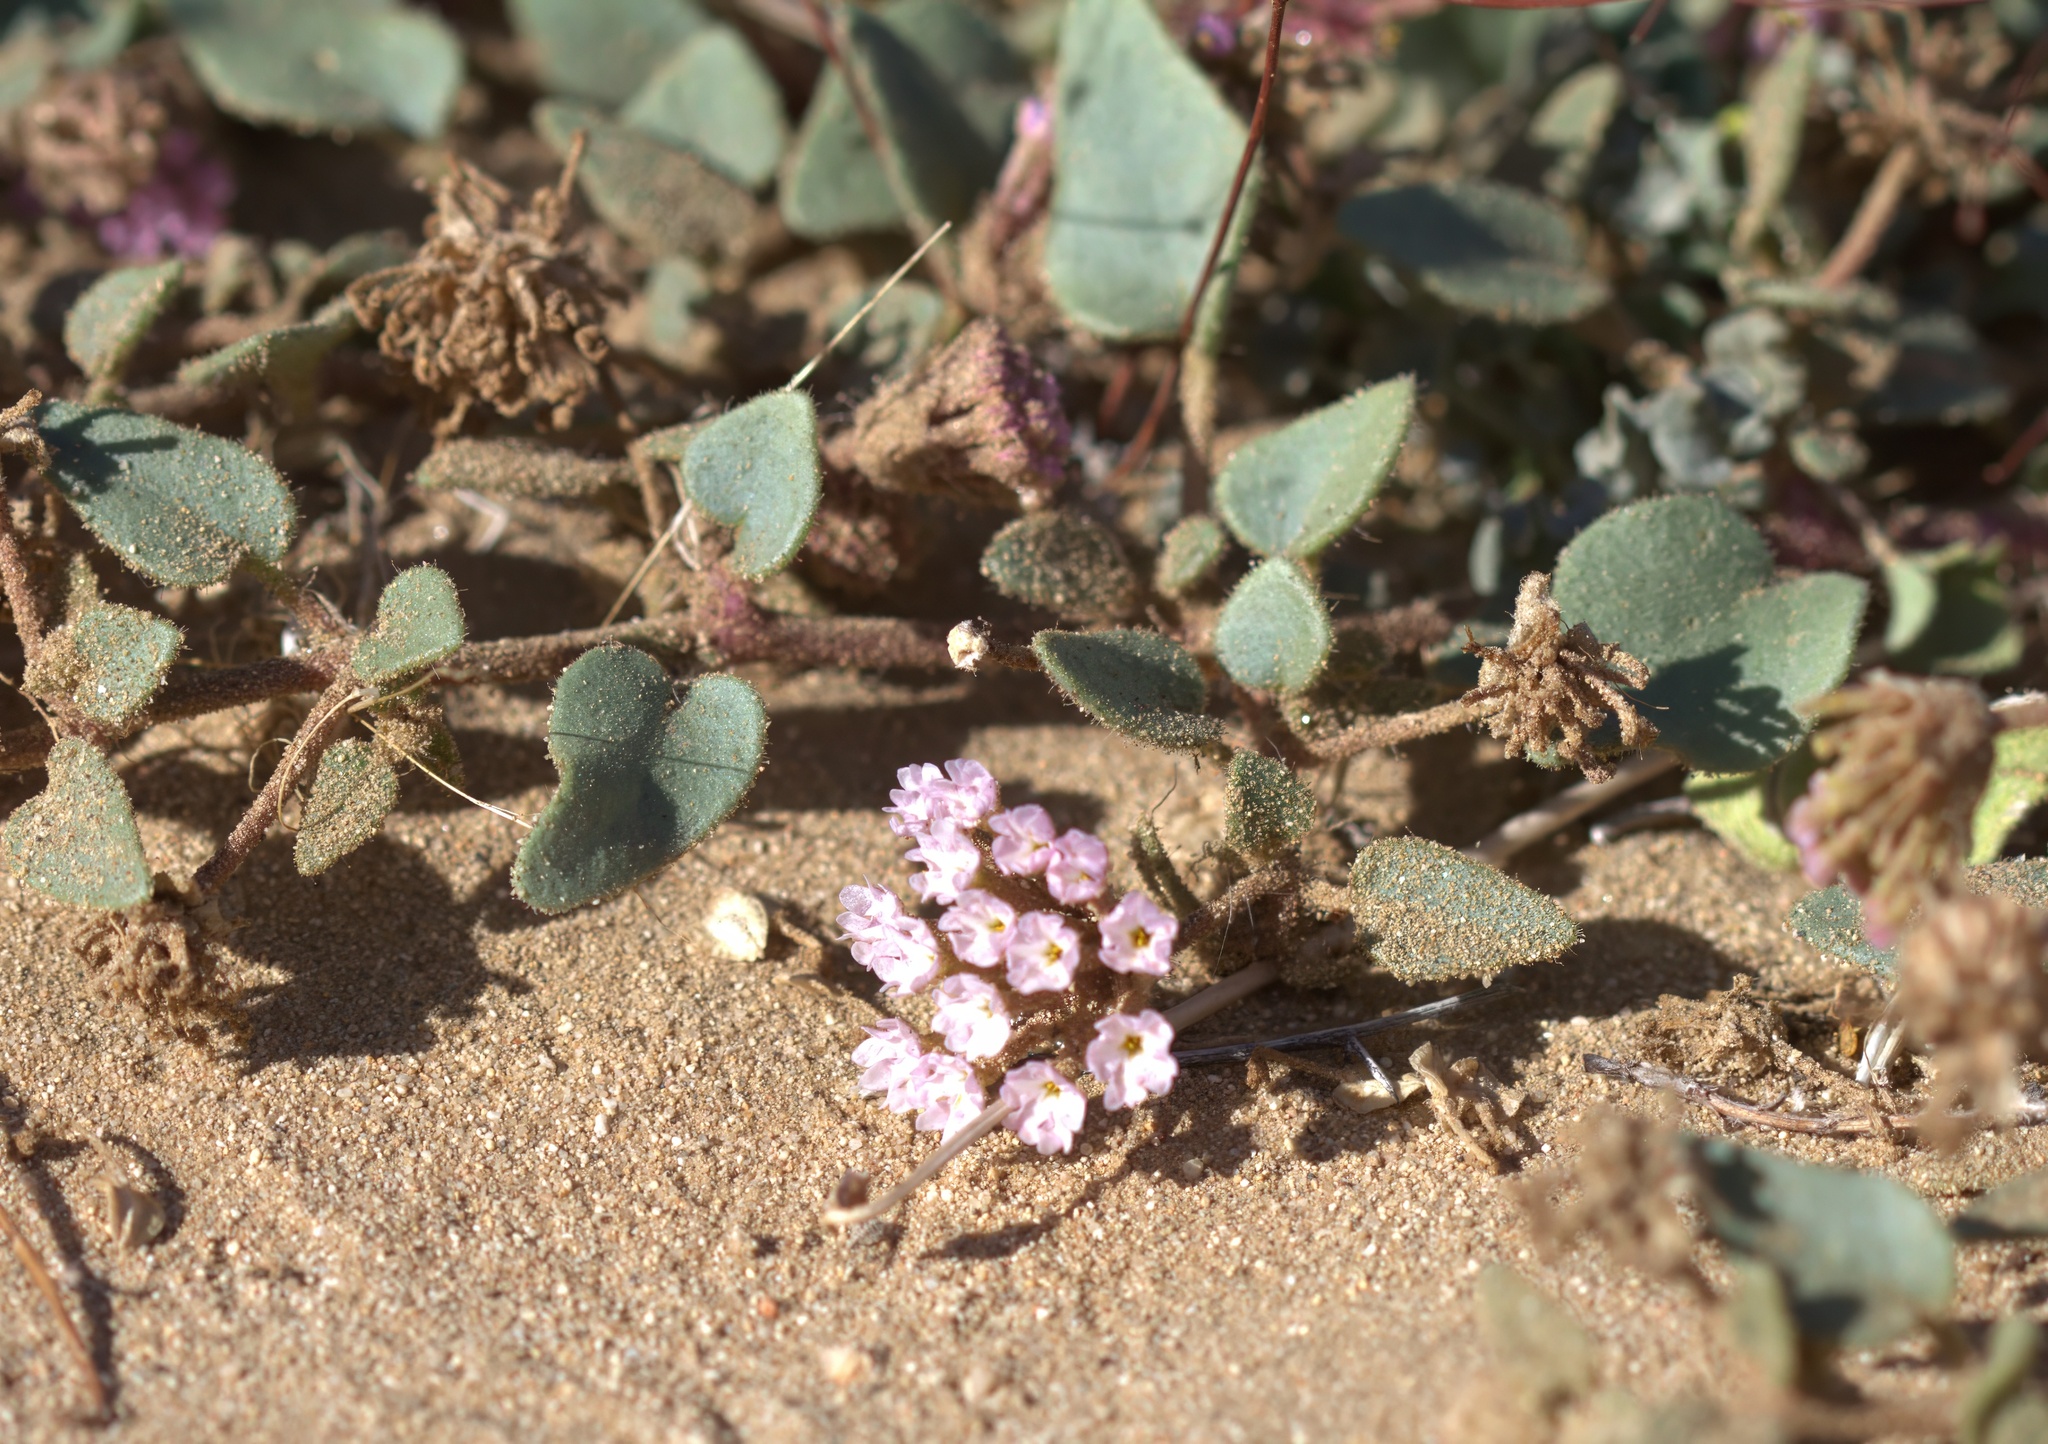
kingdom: Plantae
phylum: Tracheophyta
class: Magnoliopsida
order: Caryophyllales
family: Nyctaginaceae
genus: Abronia
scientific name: Abronia pogonantha
